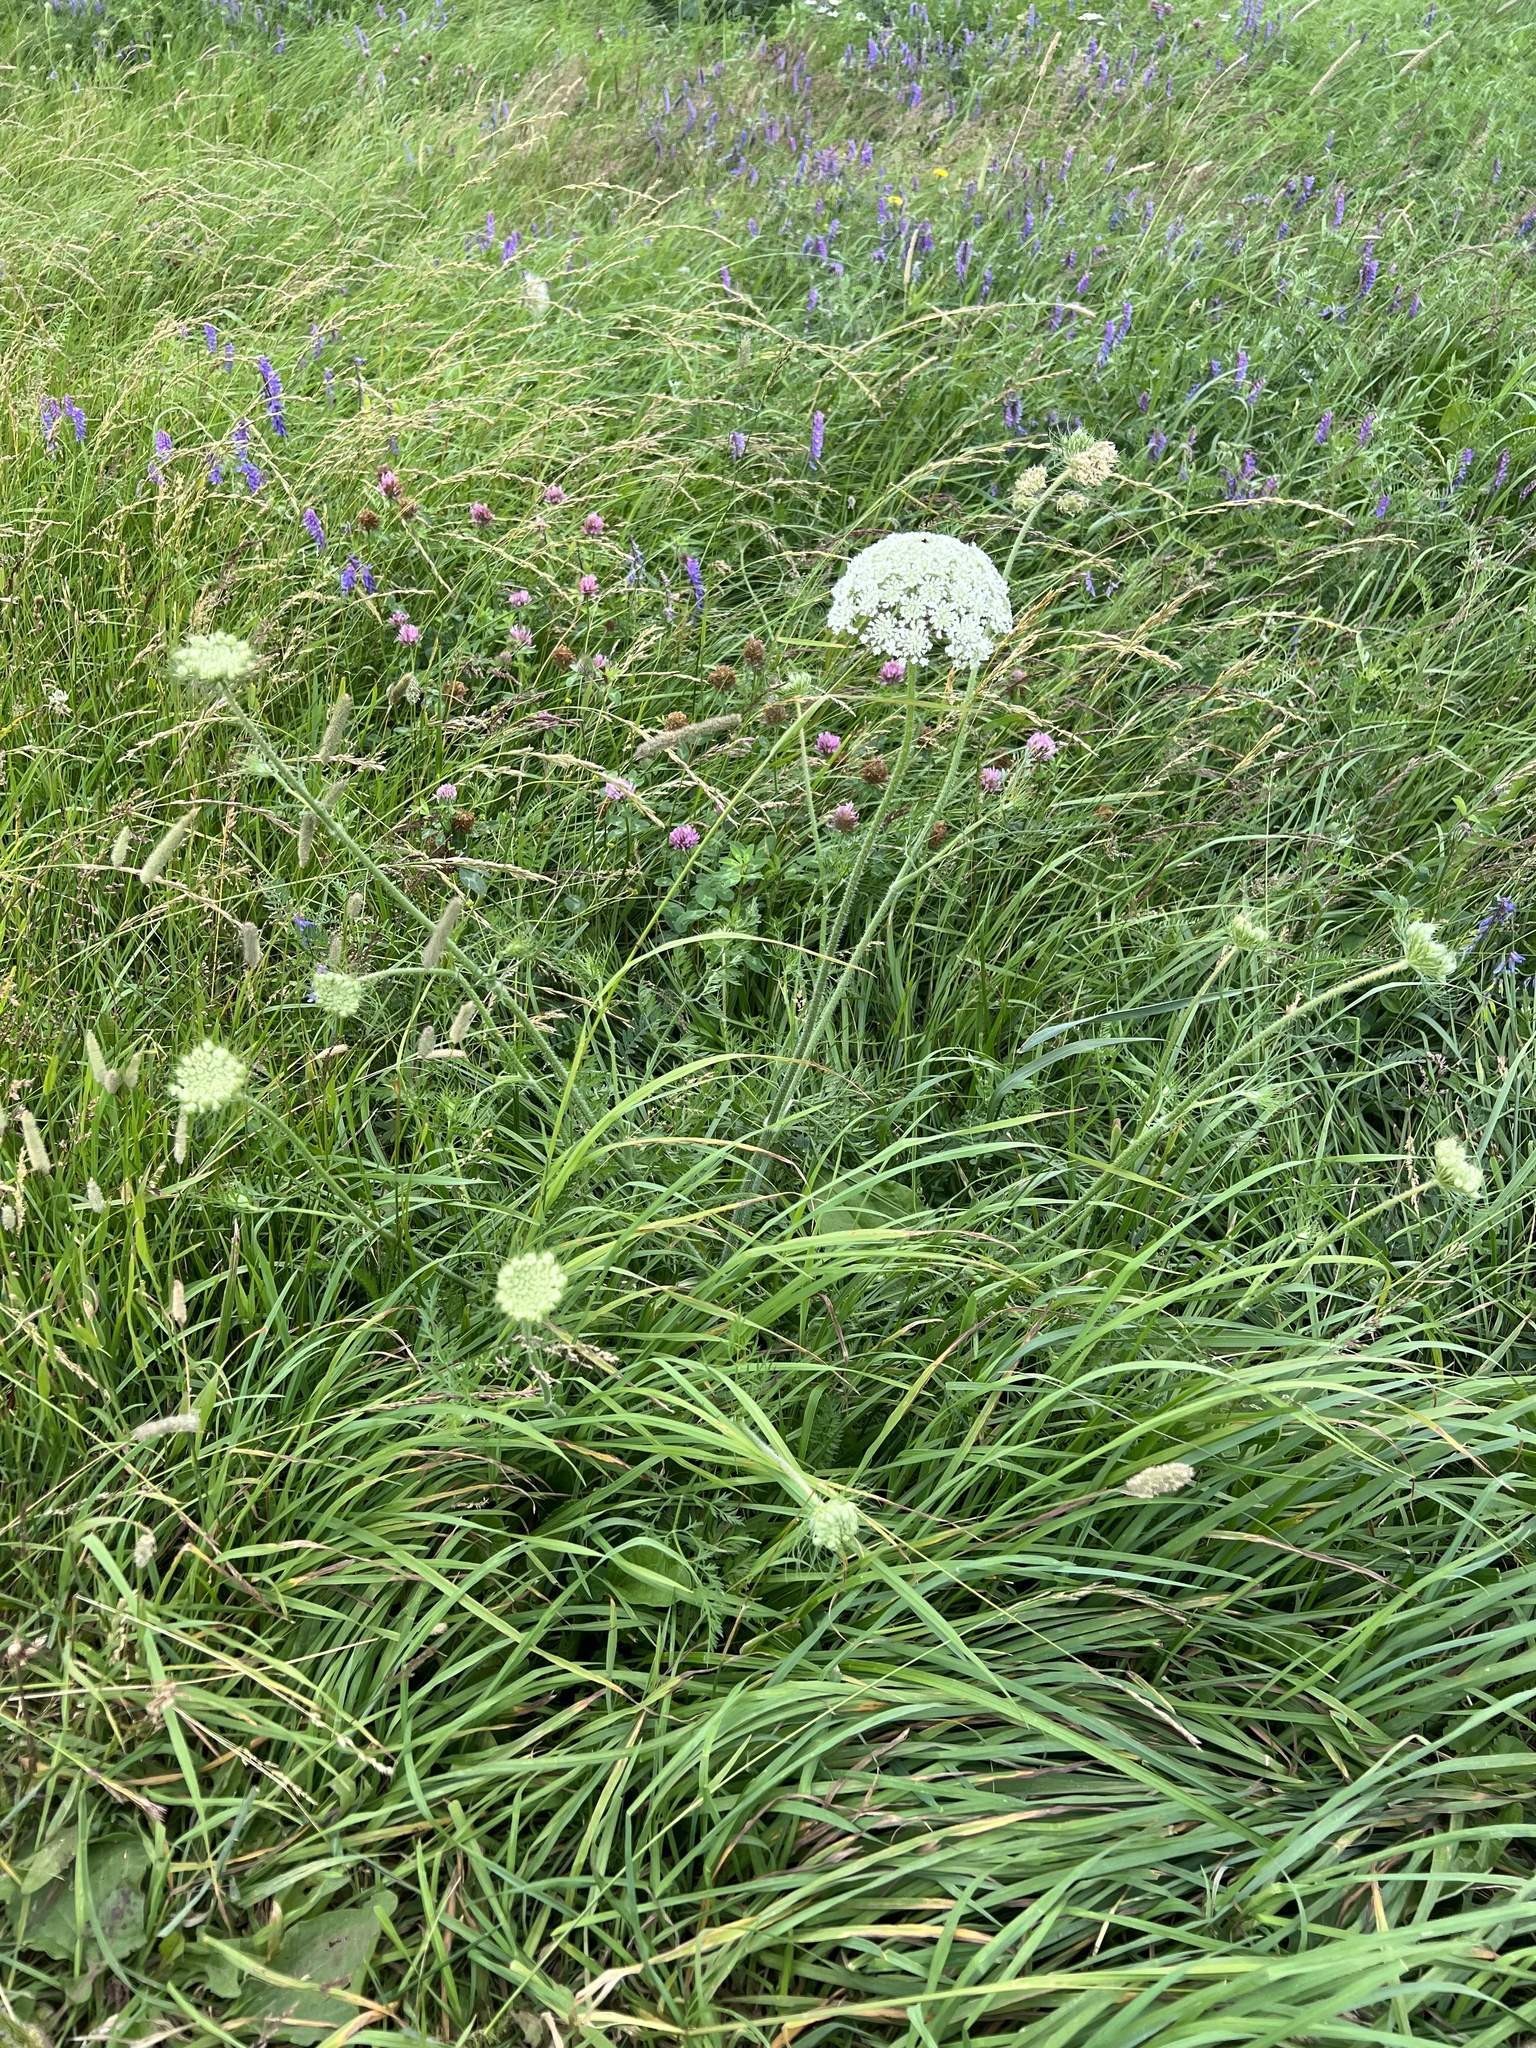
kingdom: Plantae
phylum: Tracheophyta
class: Magnoliopsida
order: Apiales
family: Apiaceae
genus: Daucus
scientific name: Daucus carota
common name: Wild carrot
